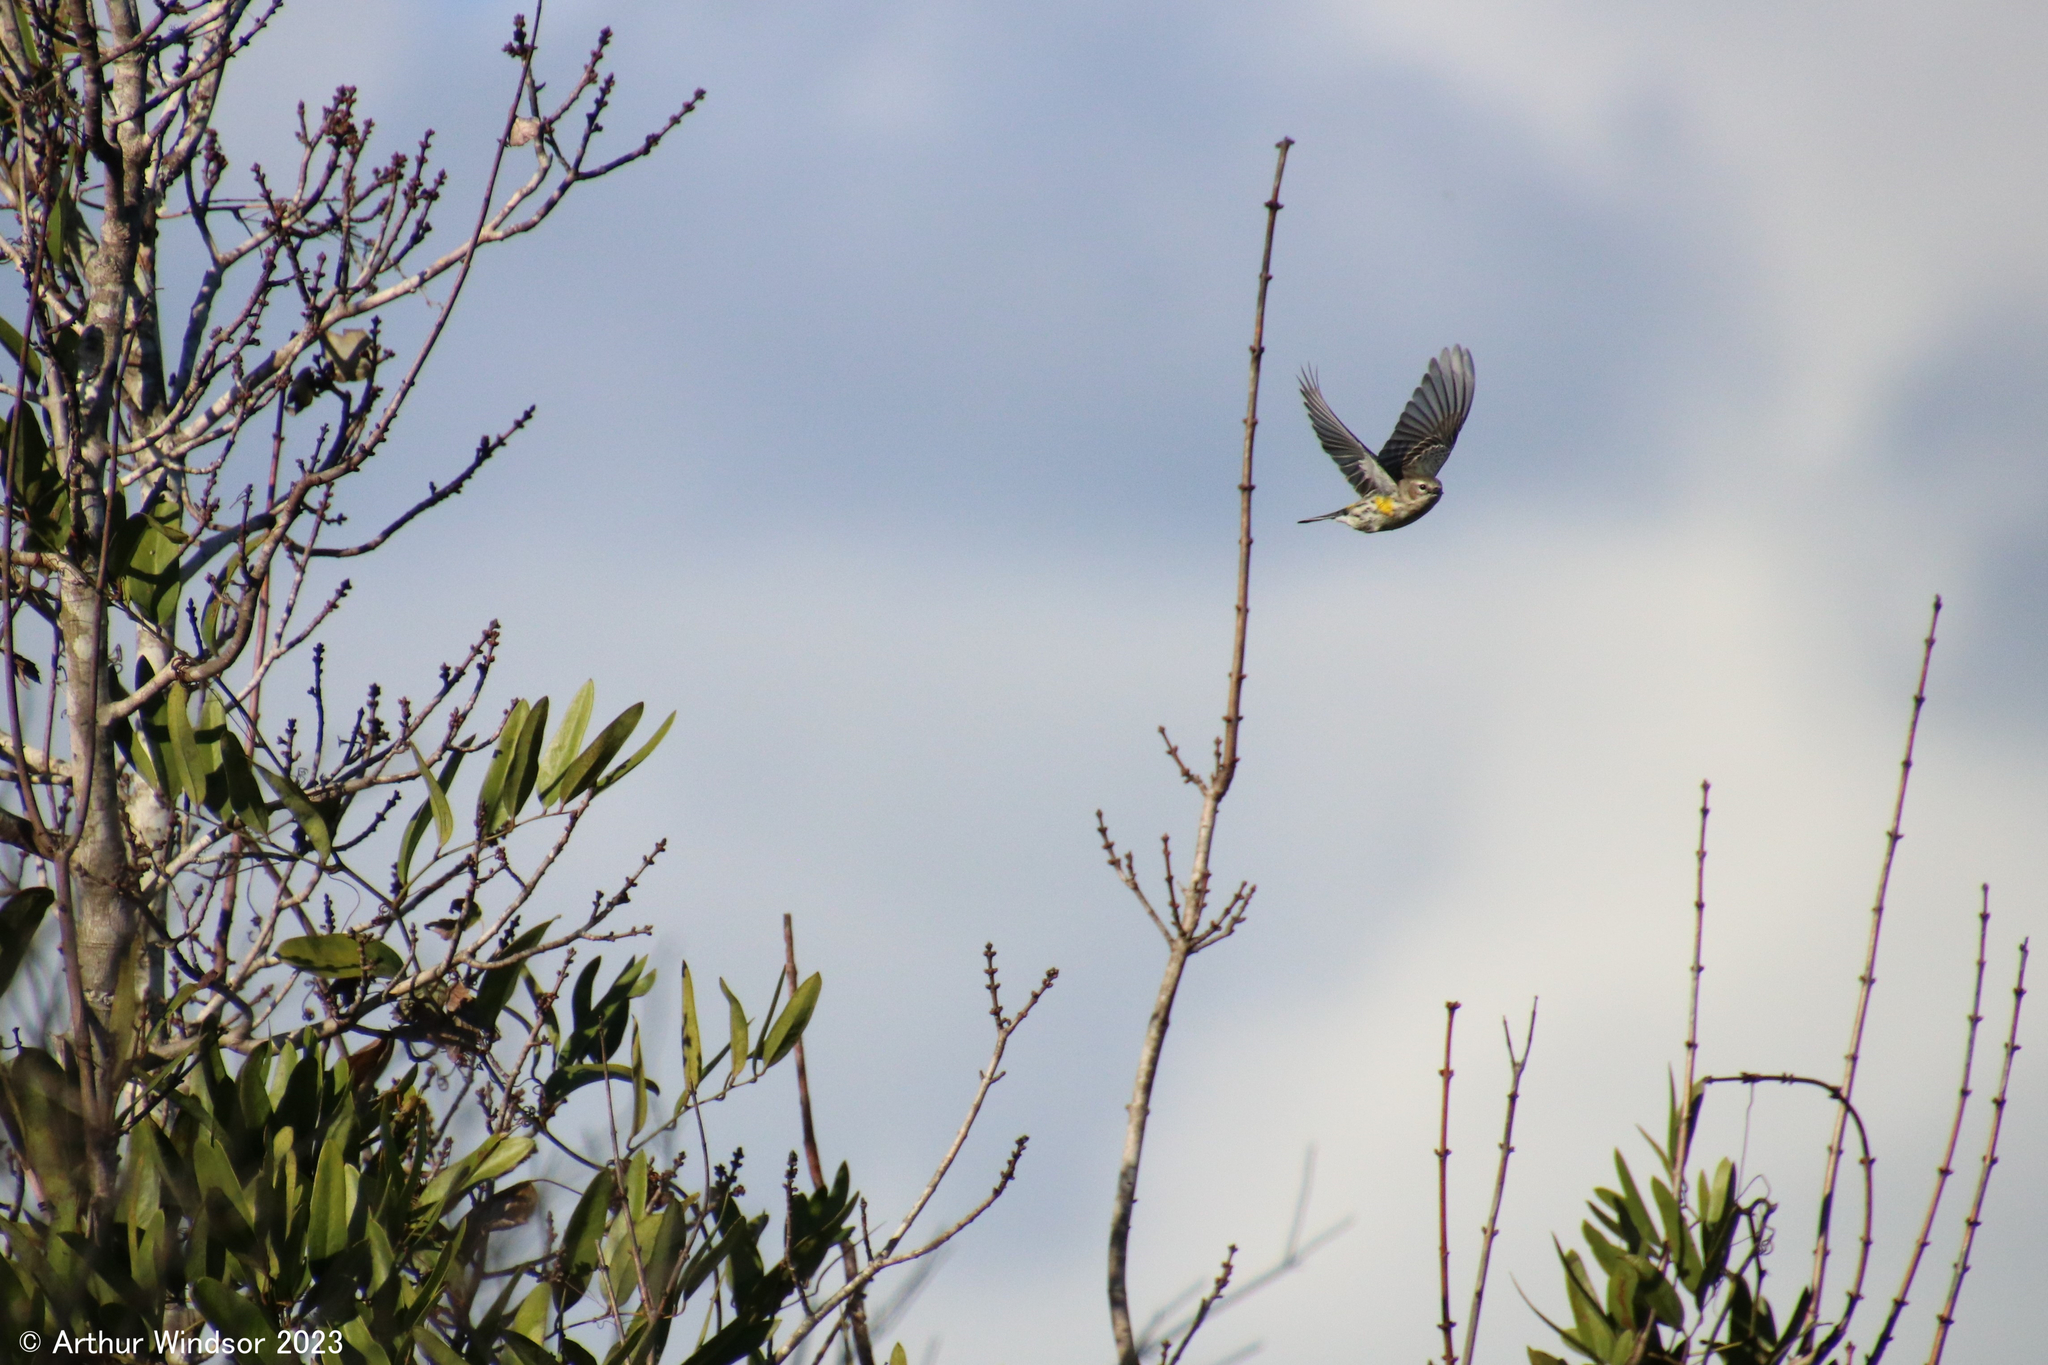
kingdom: Animalia
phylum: Chordata
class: Aves
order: Passeriformes
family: Parulidae
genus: Setophaga
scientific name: Setophaga coronata
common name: Myrtle warbler
